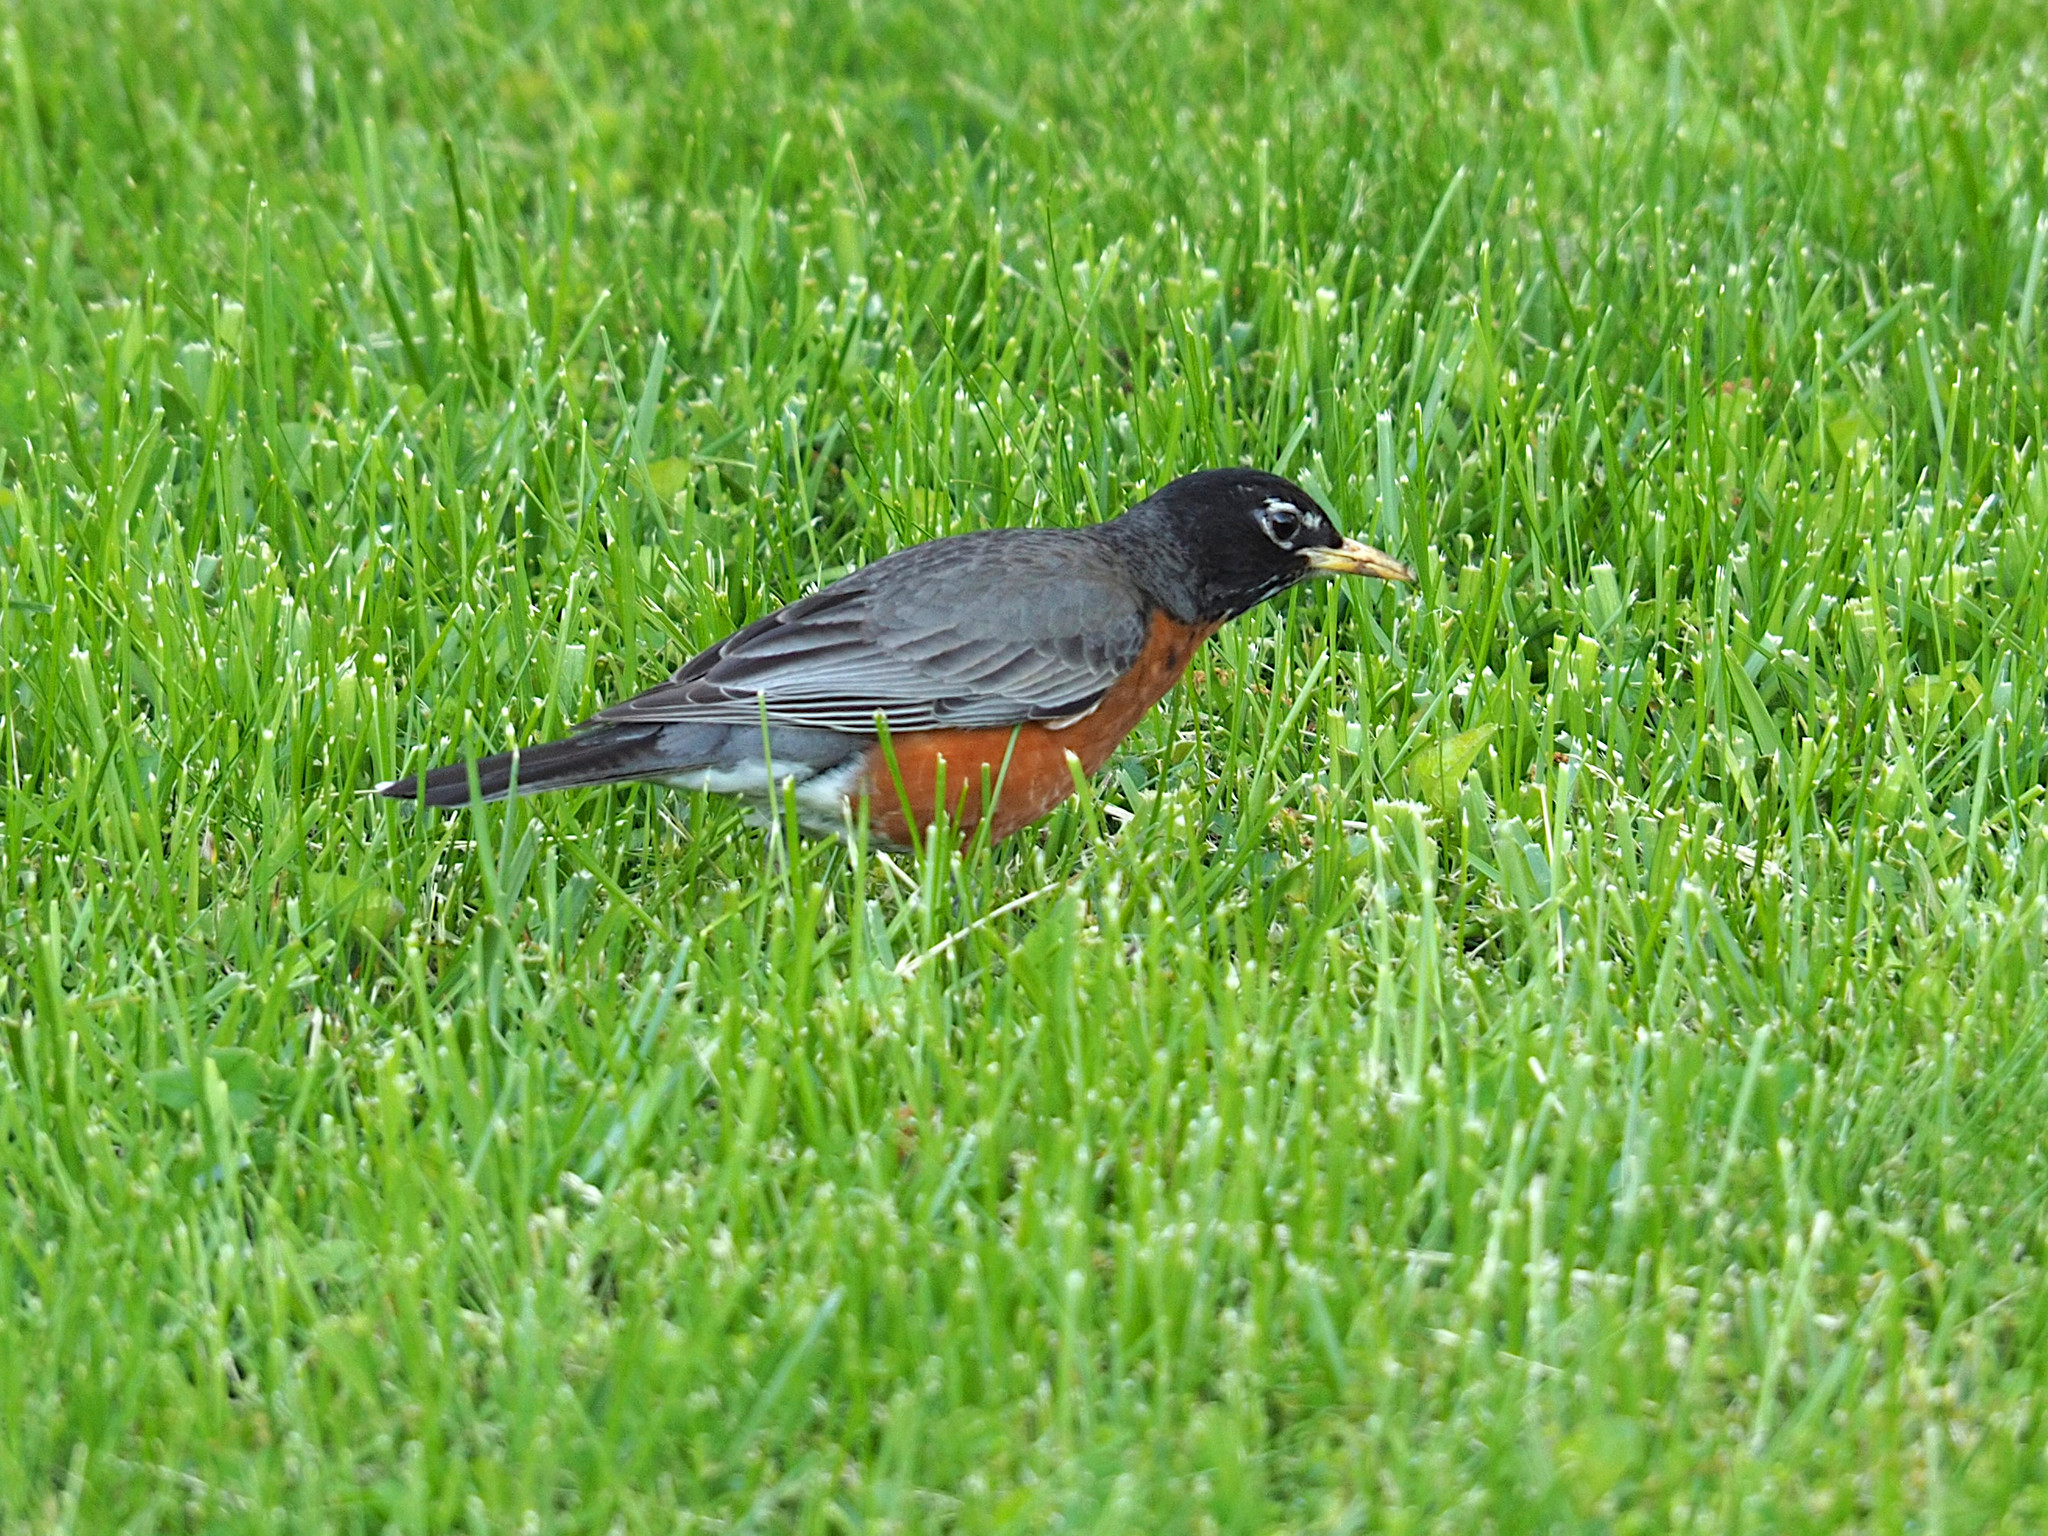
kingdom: Animalia
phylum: Chordata
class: Aves
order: Passeriformes
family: Turdidae
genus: Turdus
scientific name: Turdus migratorius
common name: American robin
